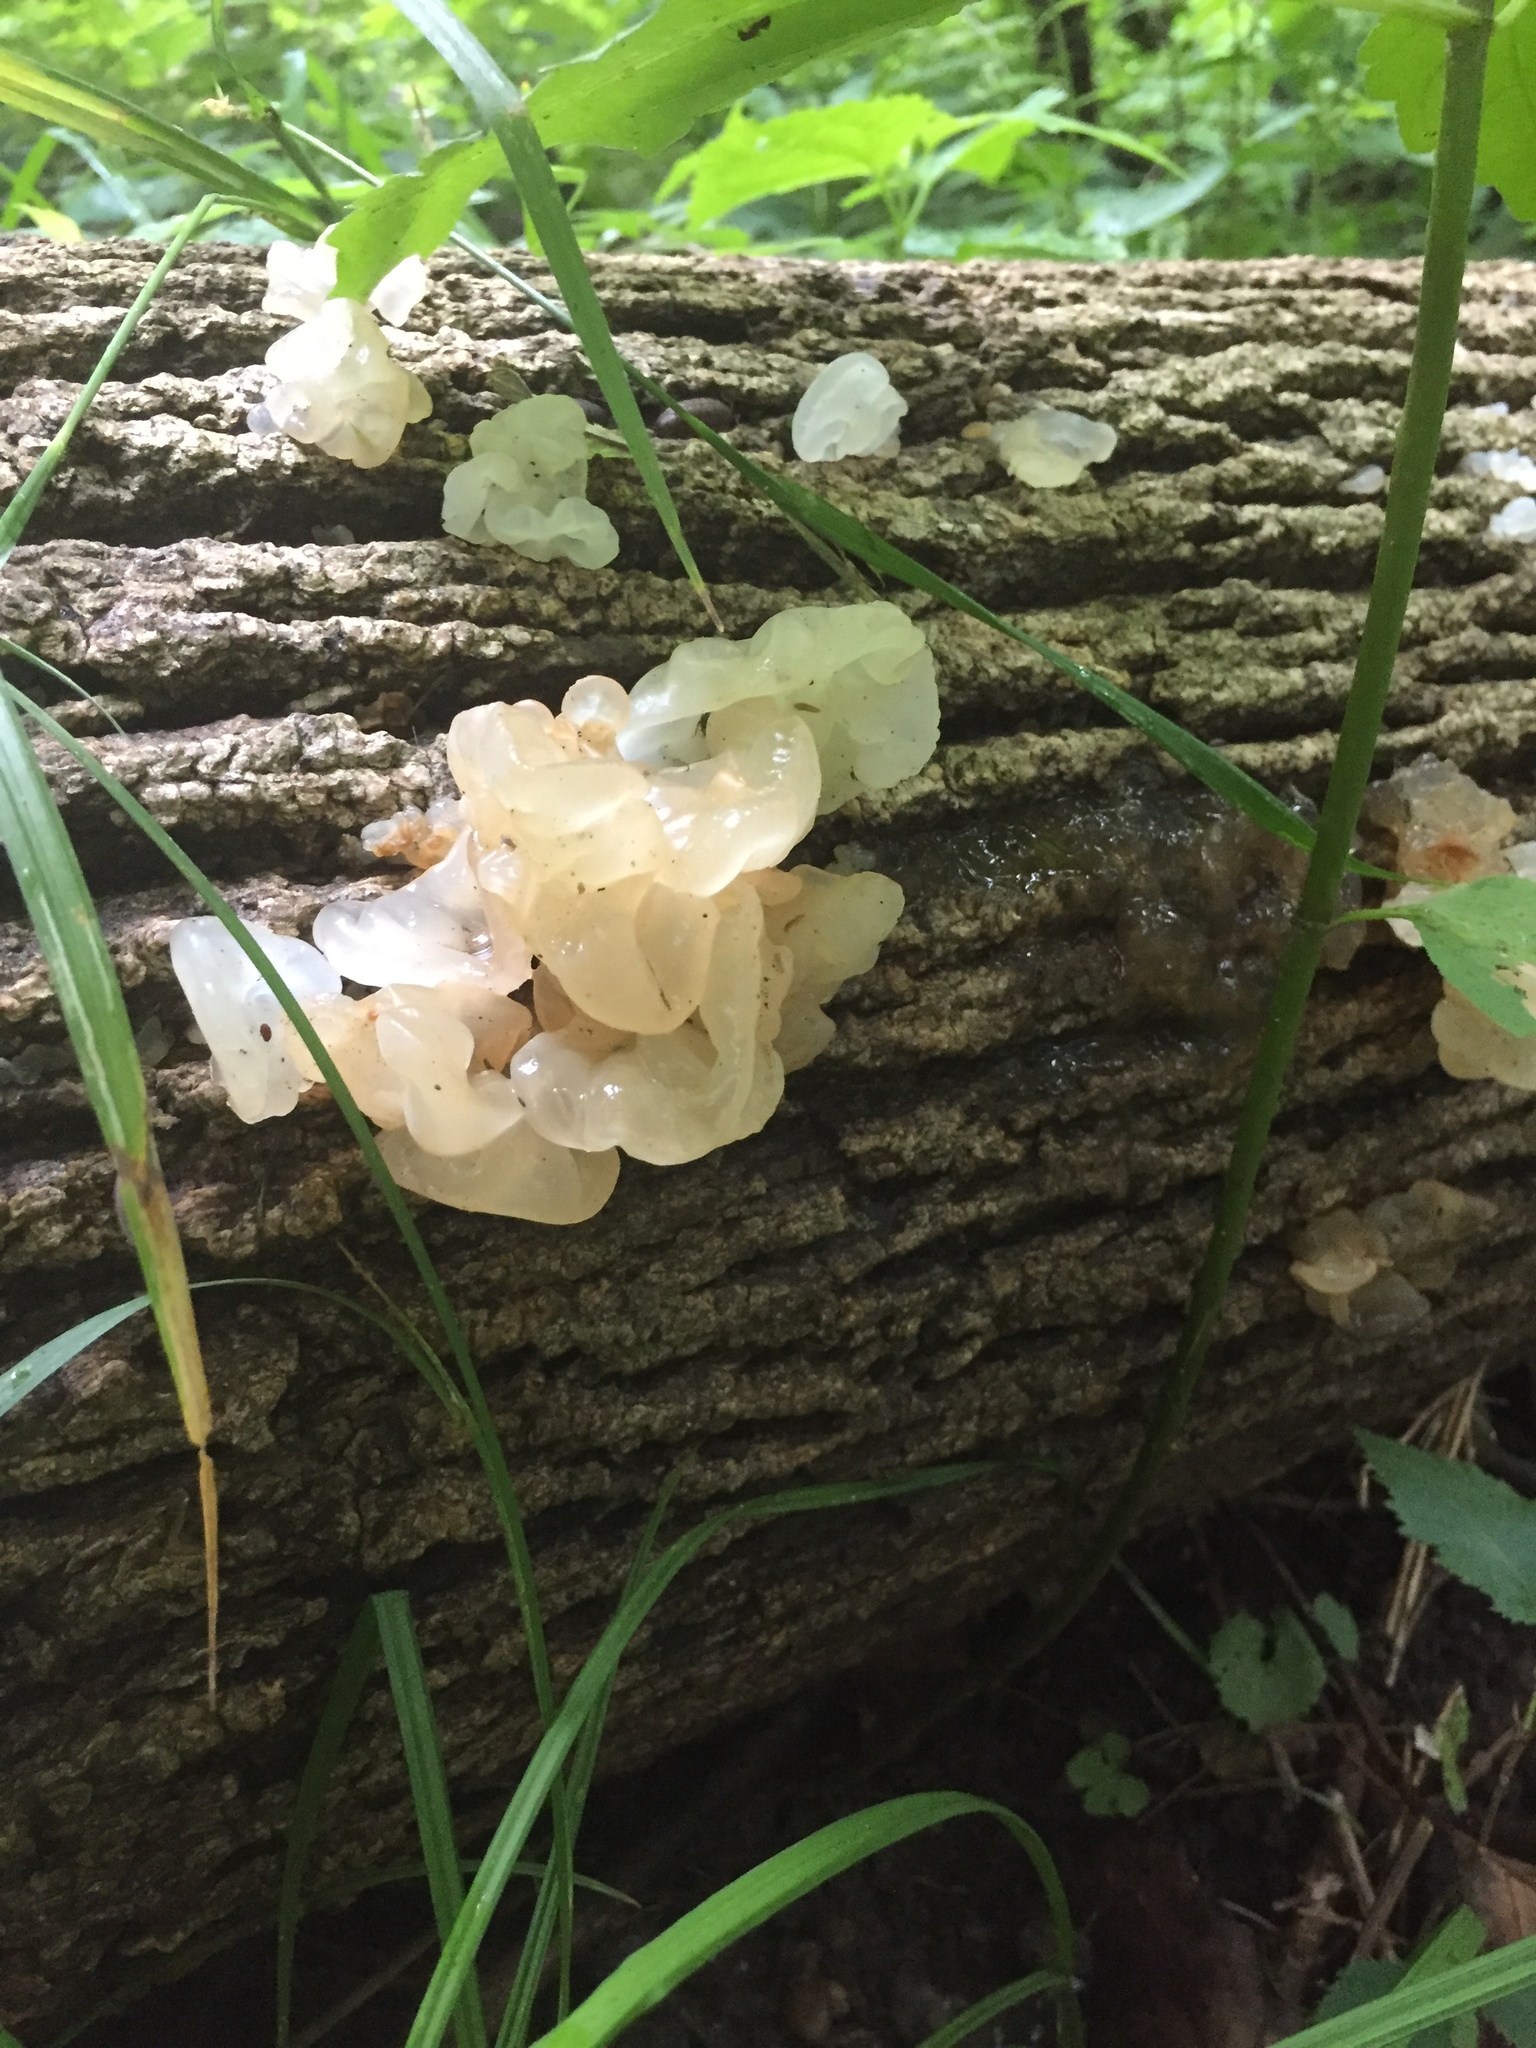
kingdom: Fungi
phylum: Basidiomycota
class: Agaricomycetes
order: Auriculariales
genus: Ductifera
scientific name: Ductifera pululahuana
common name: White jelly fungus
